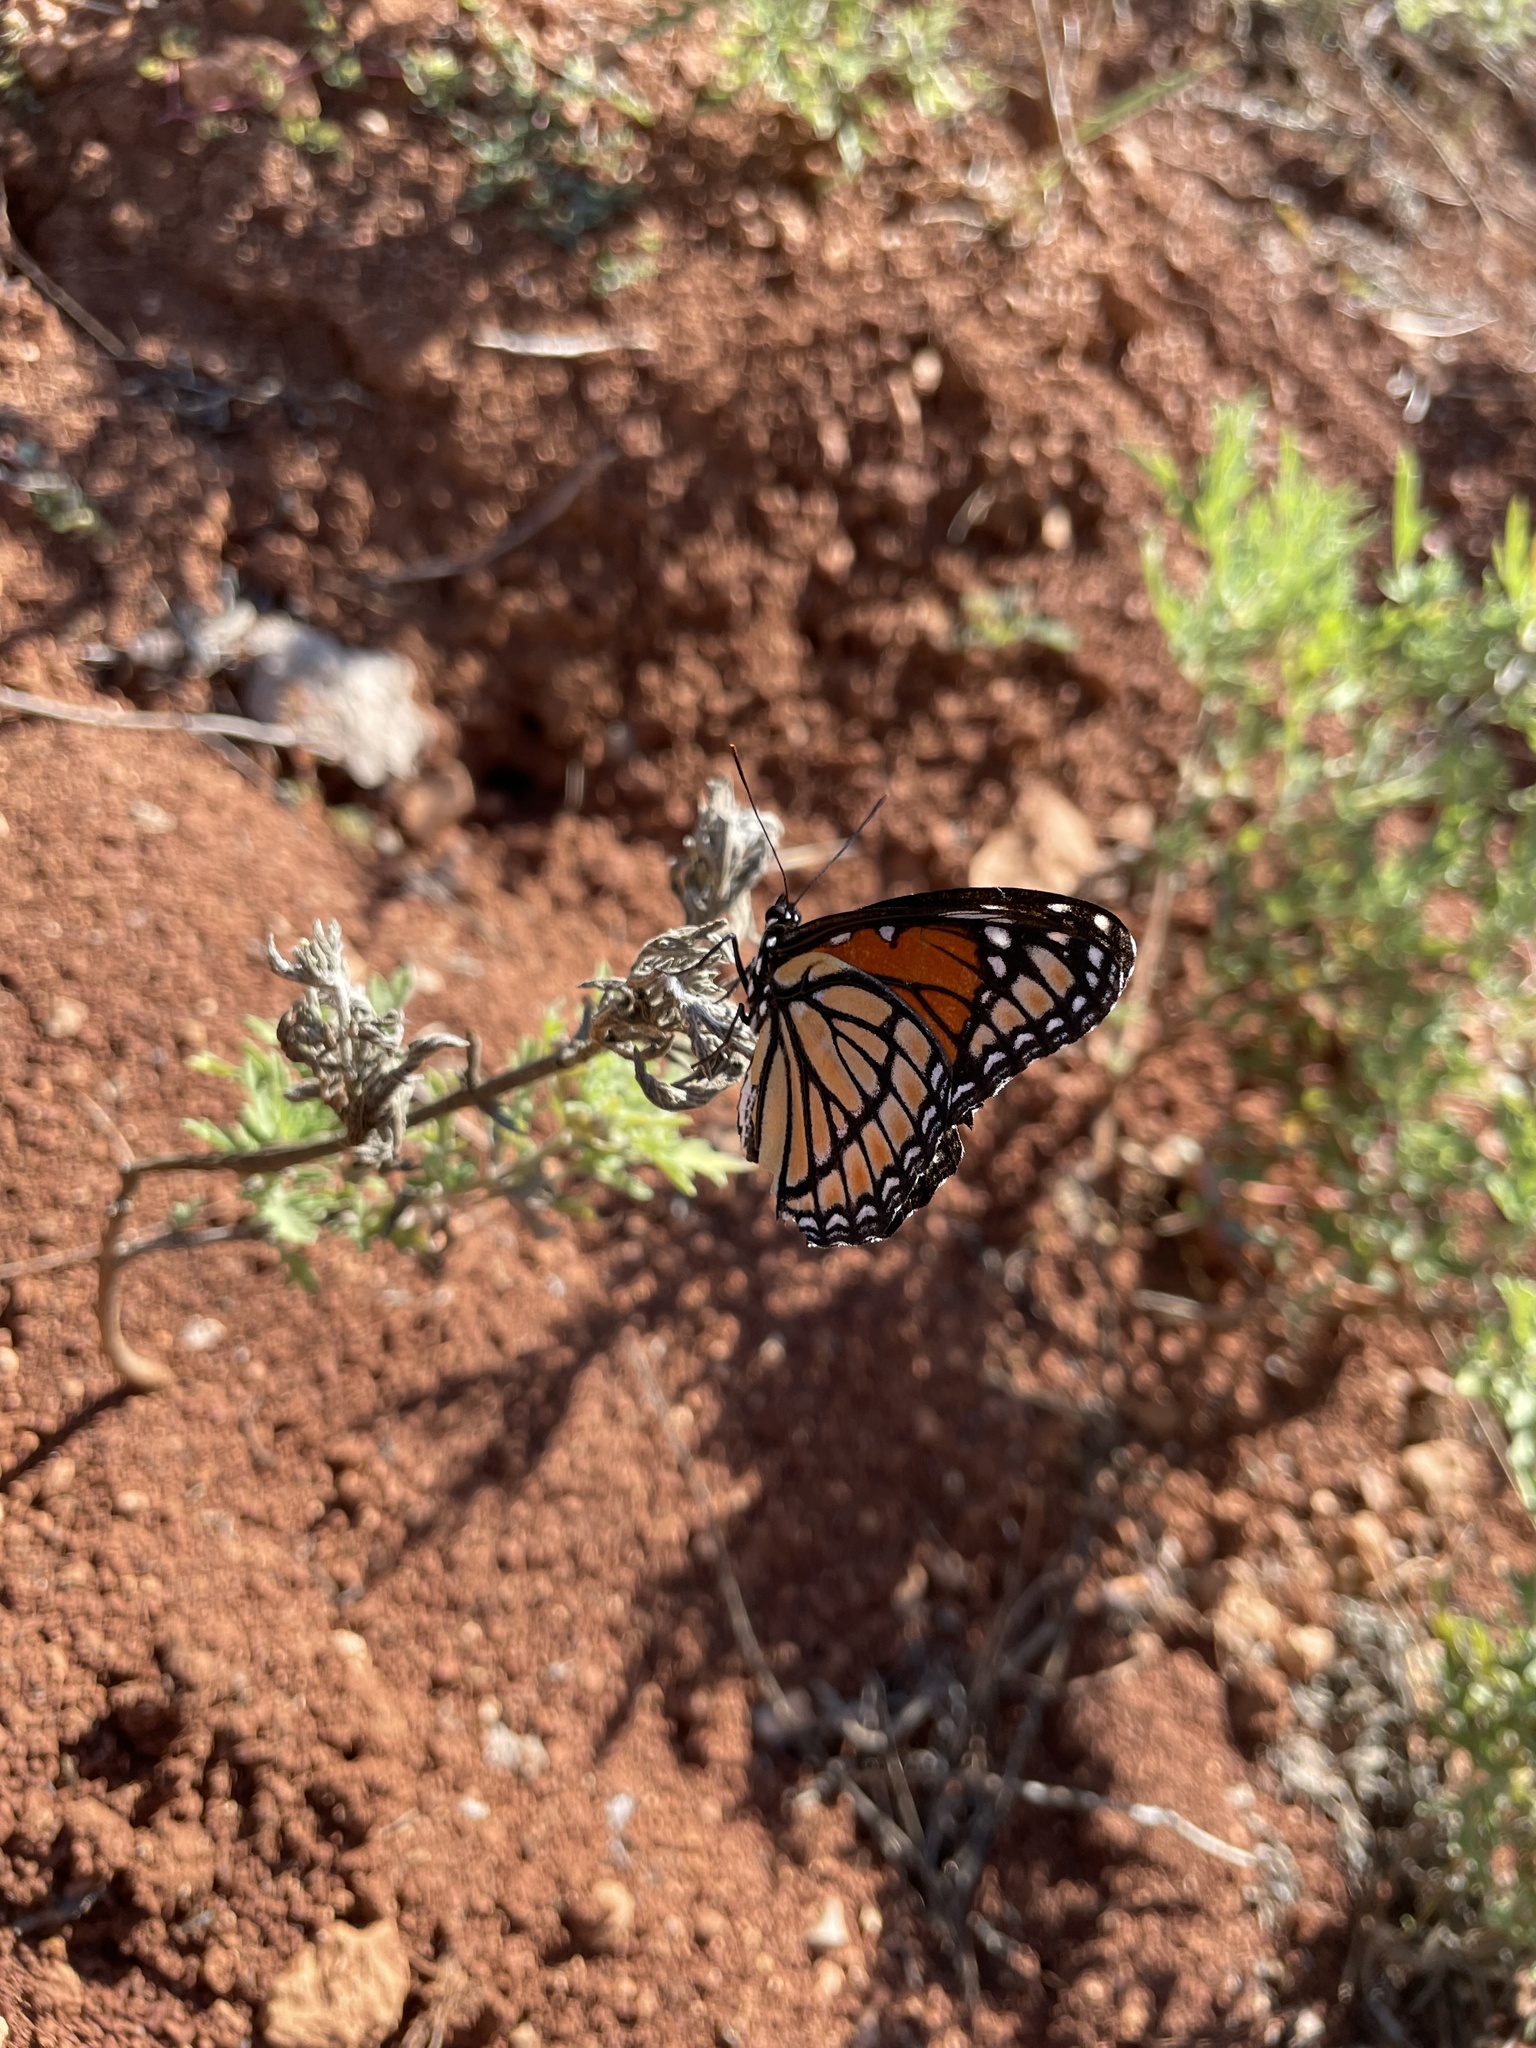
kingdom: Animalia
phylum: Arthropoda
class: Insecta
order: Lepidoptera
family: Nymphalidae
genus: Limenitis
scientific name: Limenitis archippus
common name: Viceroy
